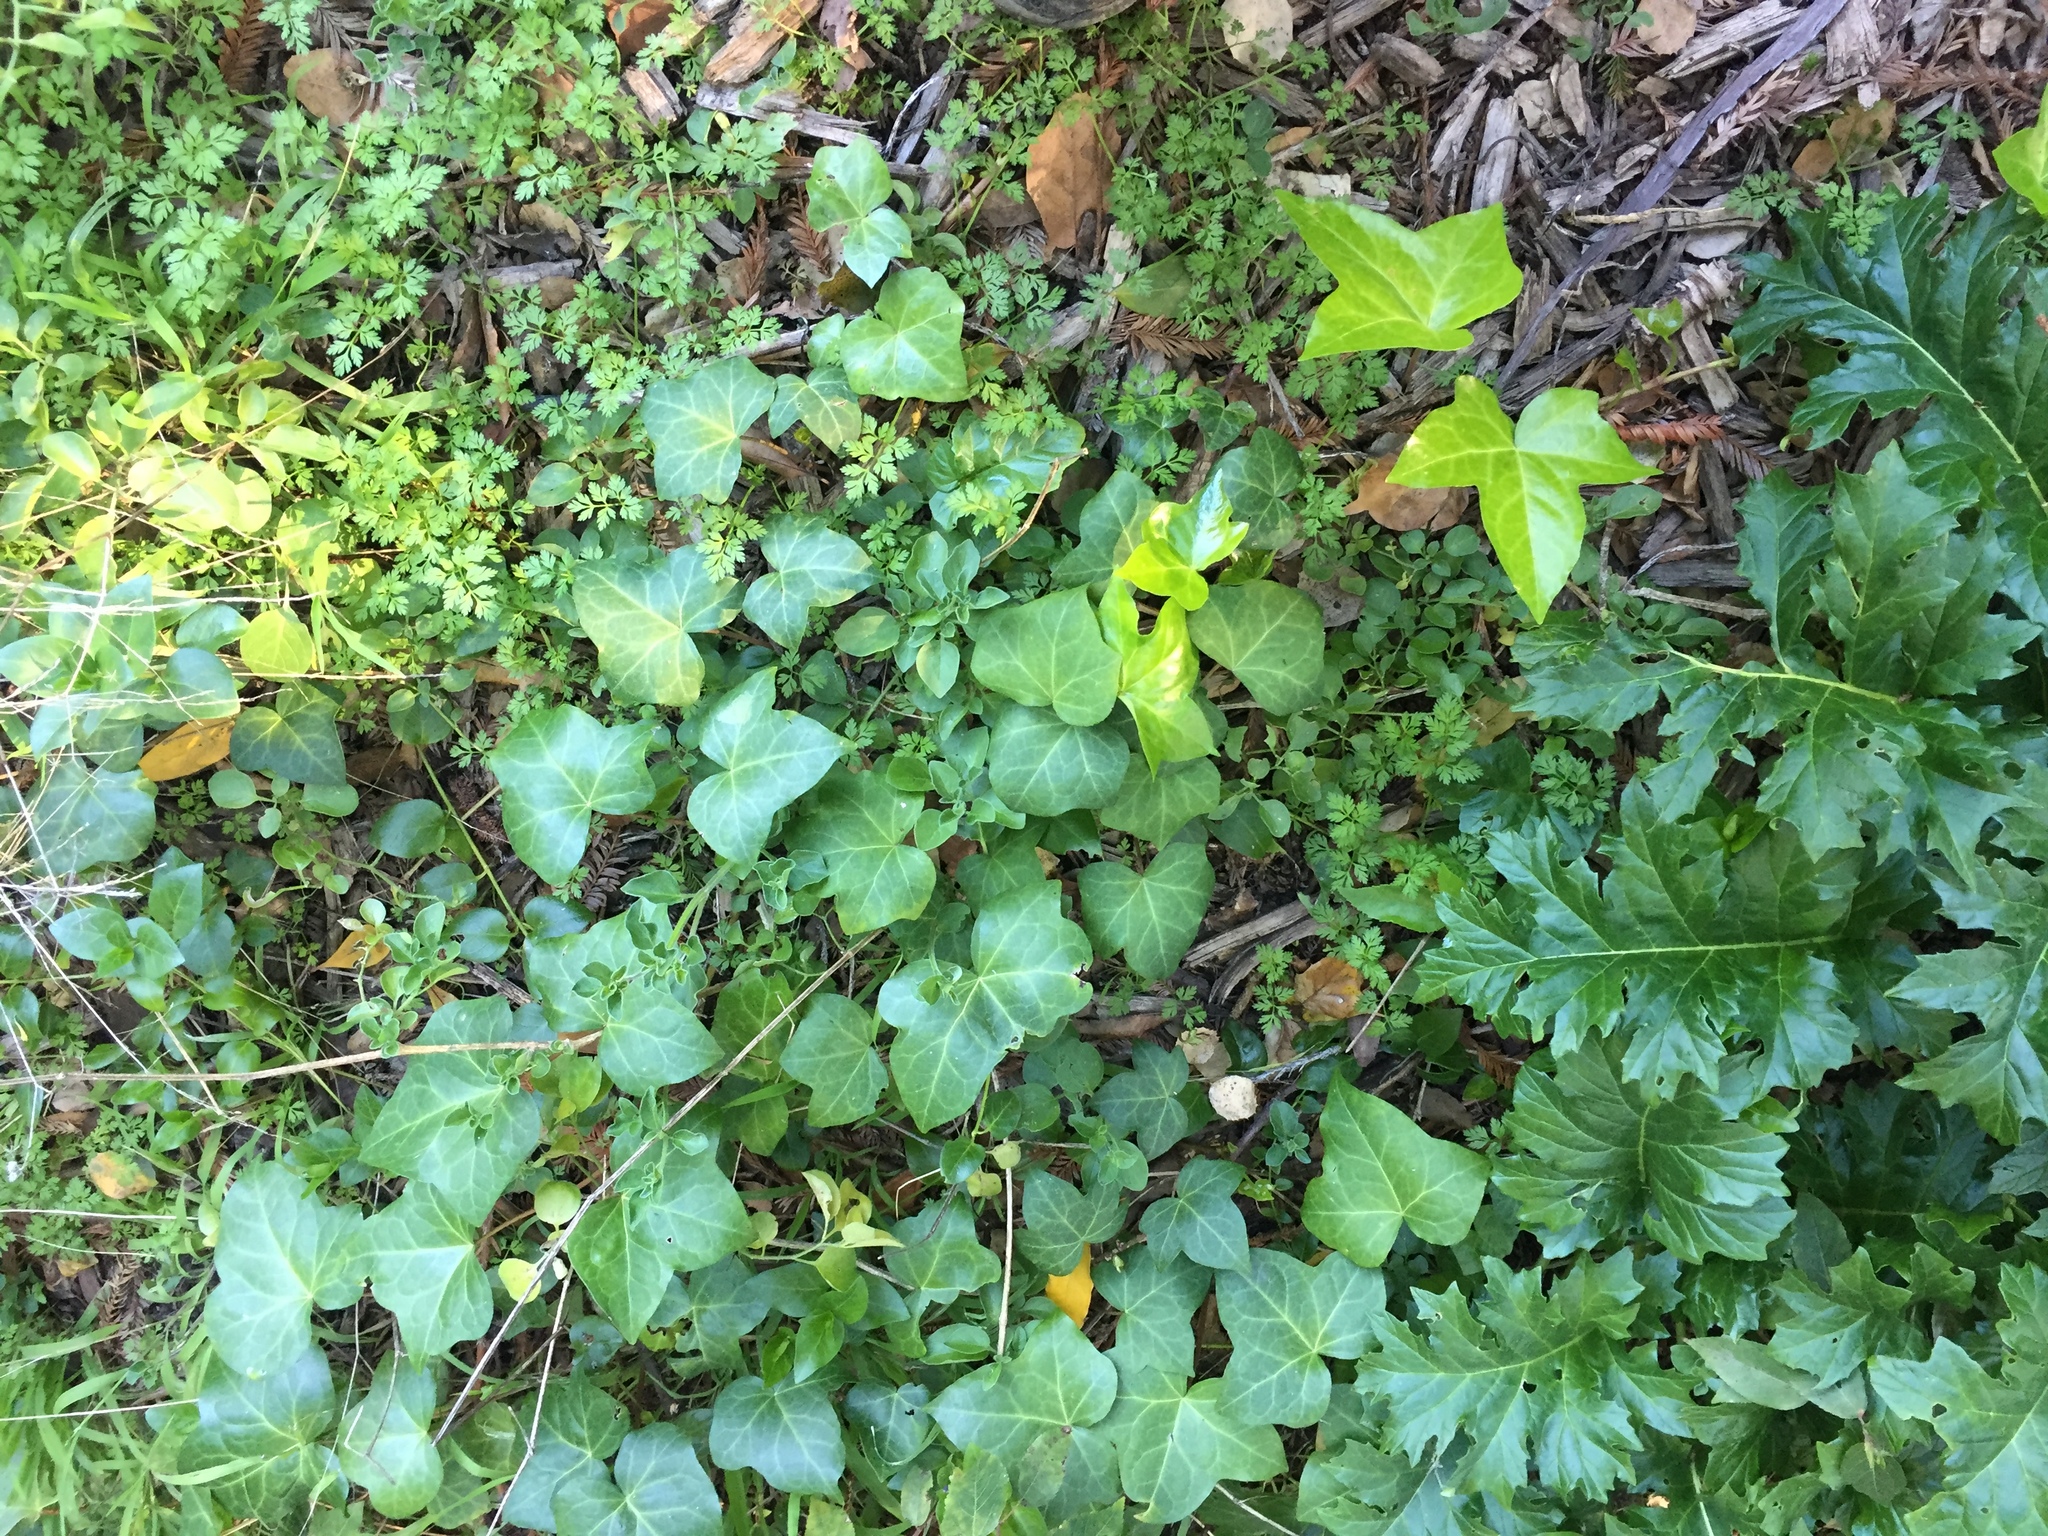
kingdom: Plantae
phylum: Tracheophyta
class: Magnoliopsida
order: Apiales
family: Araliaceae
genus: Hedera
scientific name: Hedera helix
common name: Ivy
